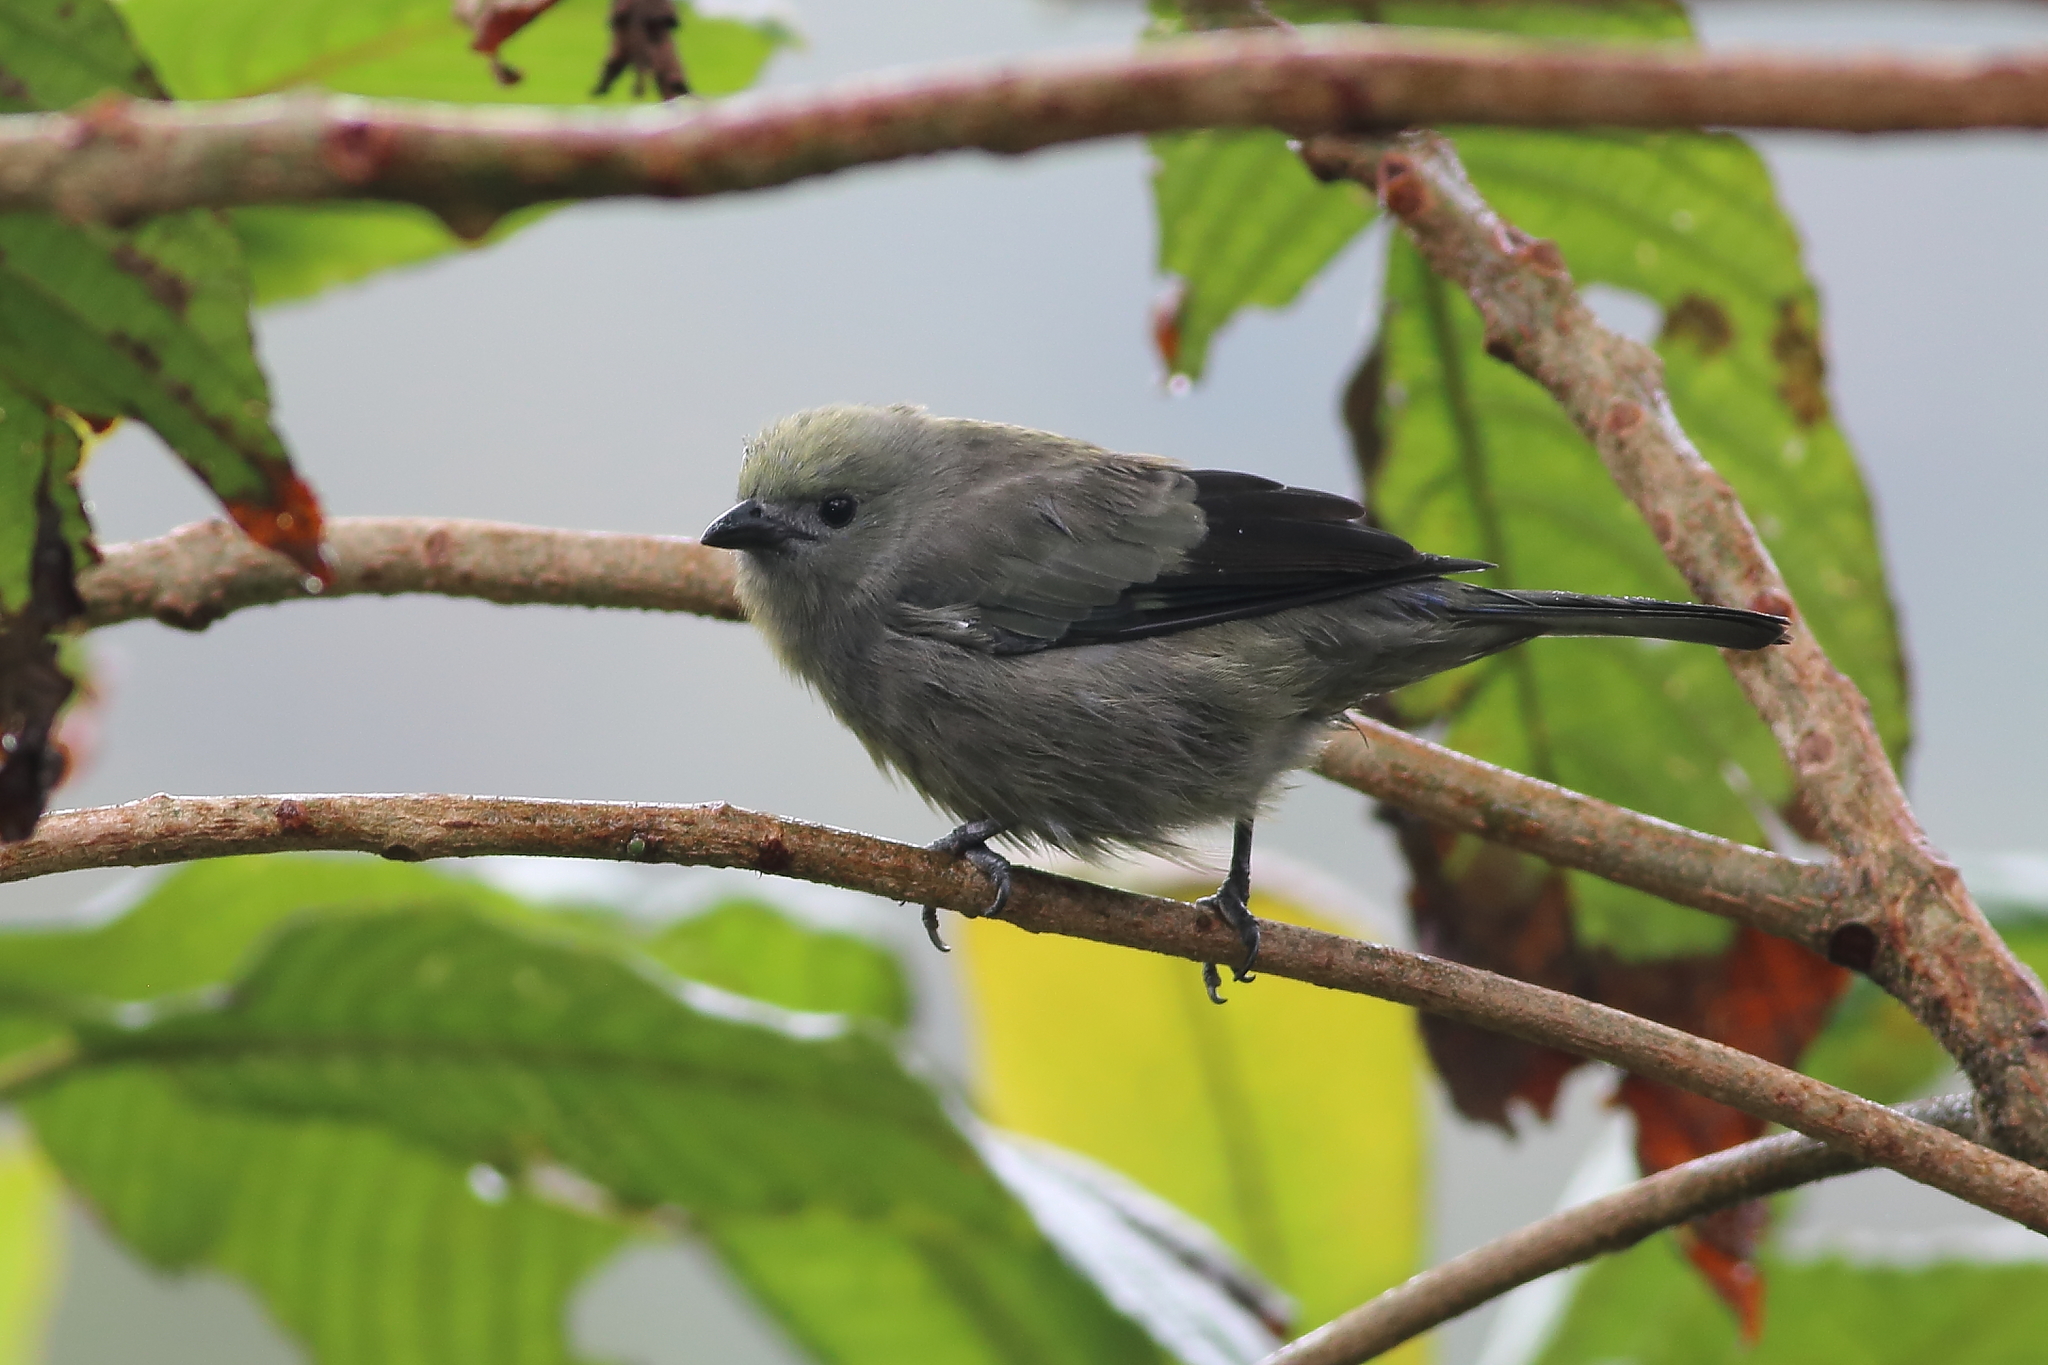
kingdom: Animalia
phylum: Chordata
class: Aves
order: Passeriformes
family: Thraupidae
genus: Thraupis
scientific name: Thraupis palmarum
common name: Palm tanager
